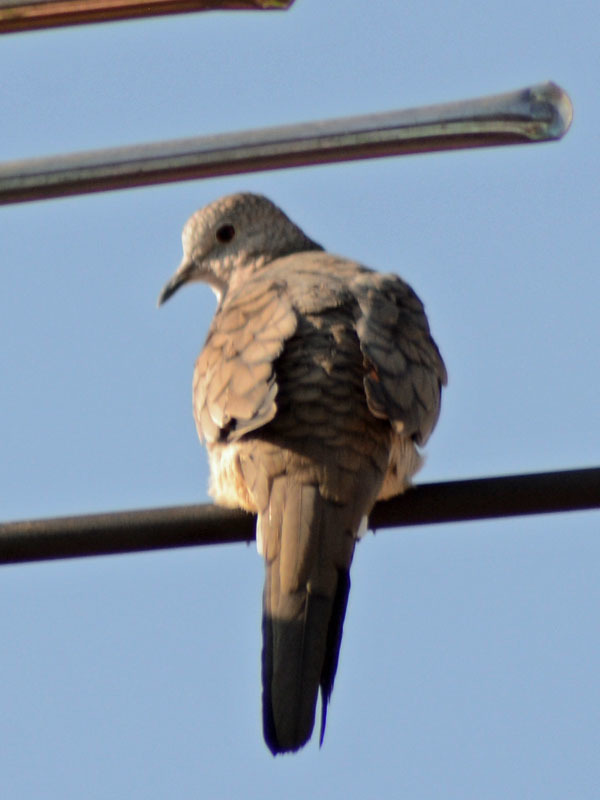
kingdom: Animalia
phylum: Chordata
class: Aves
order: Columbiformes
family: Columbidae
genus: Columbina
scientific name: Columbina inca
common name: Inca dove
